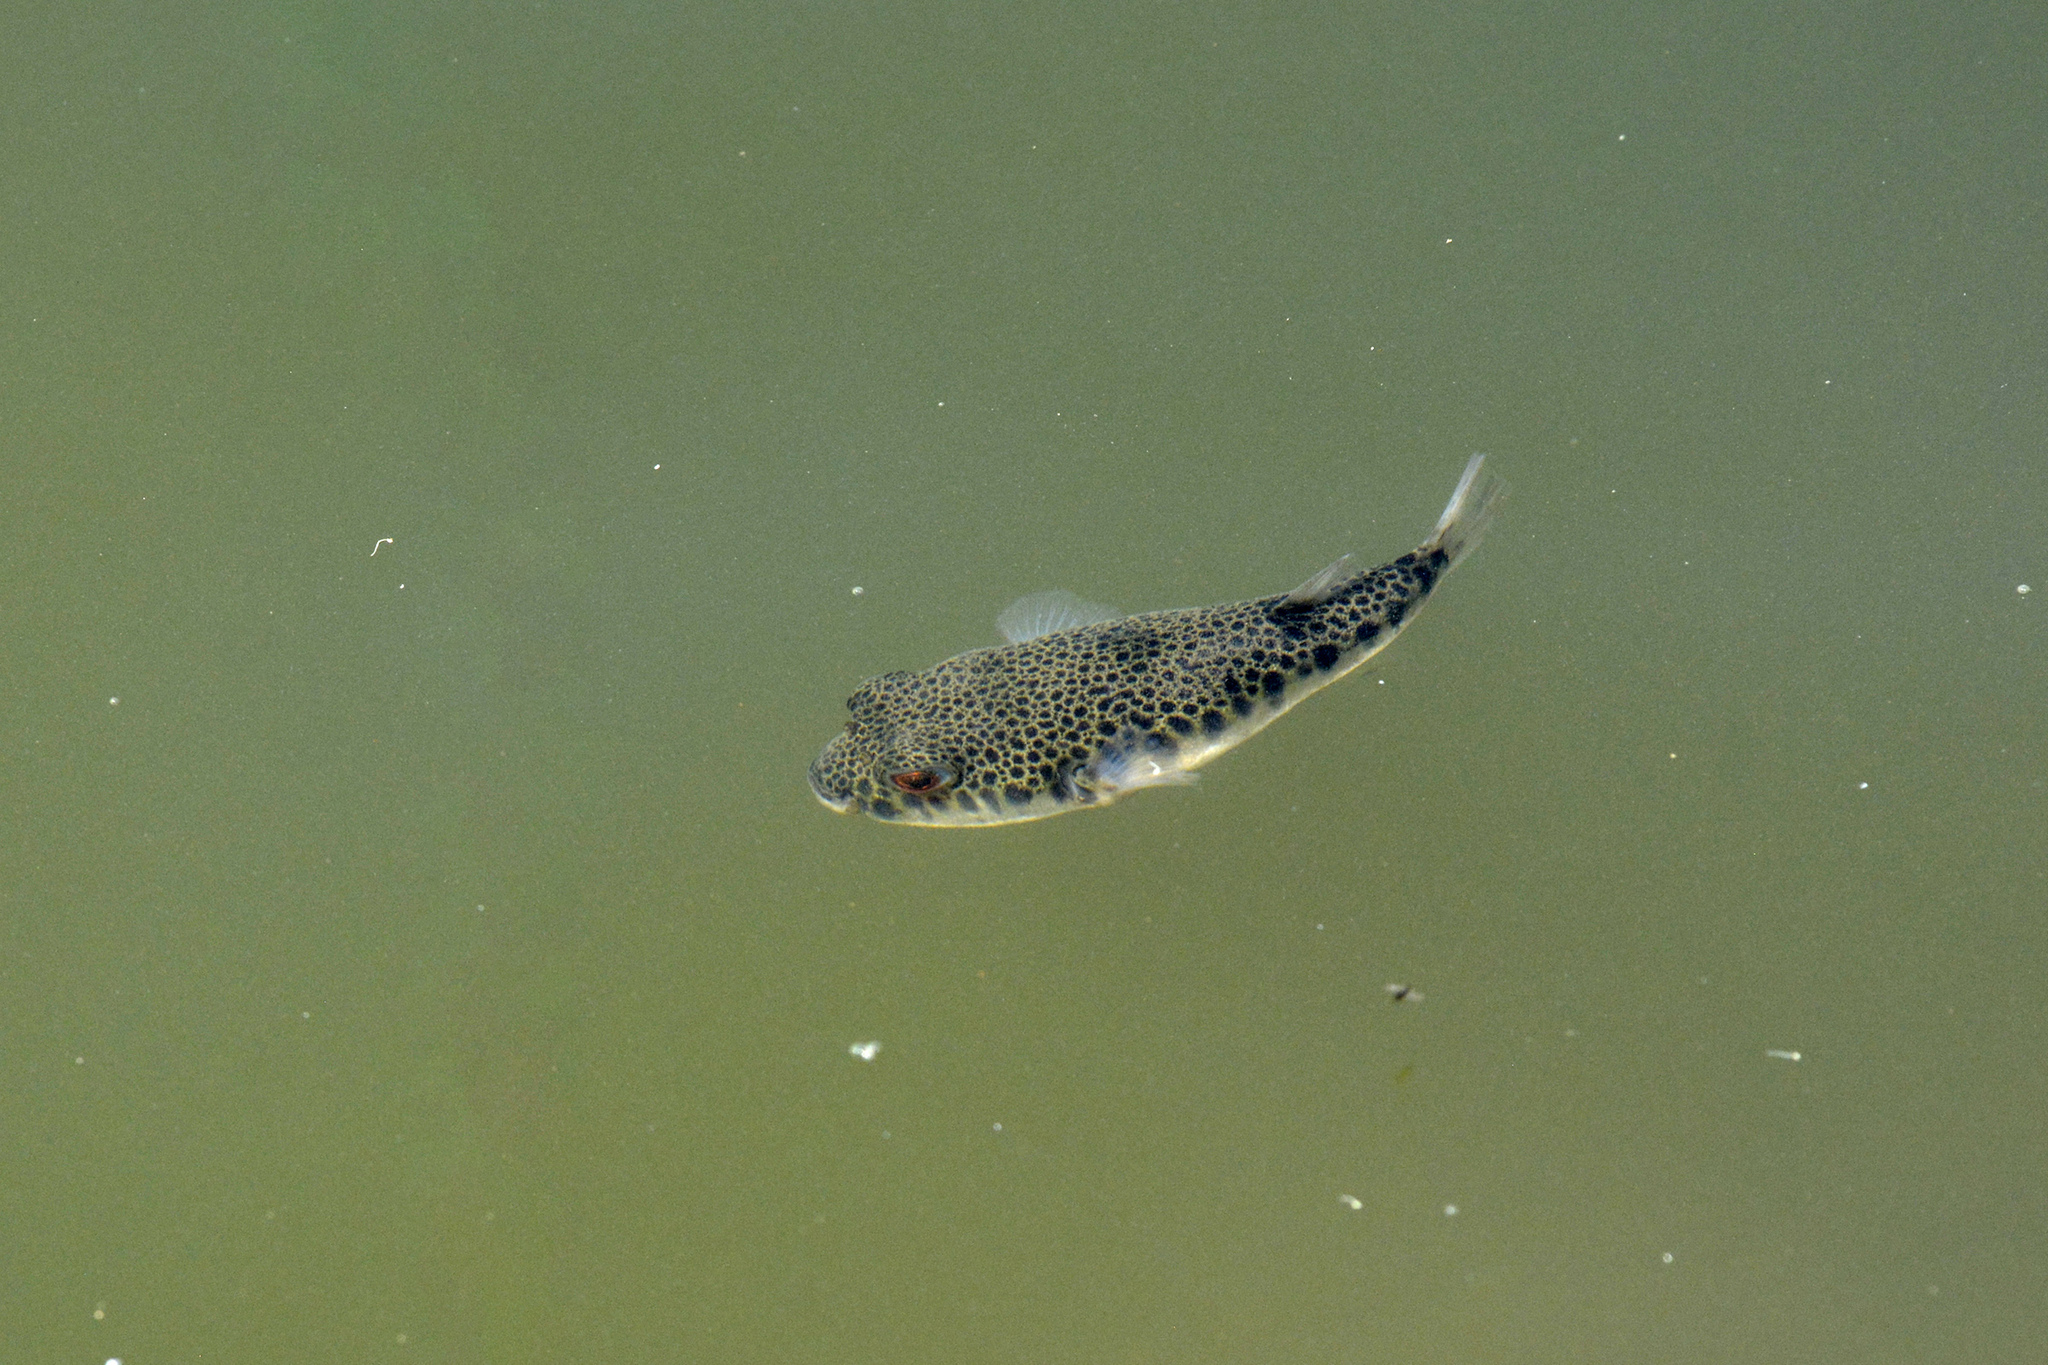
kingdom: Animalia
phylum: Chordata
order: Tetraodontiformes
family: Tetraodontidae
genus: Tetractenos
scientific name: Tetractenos hamiltoni
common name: Common toadfish
